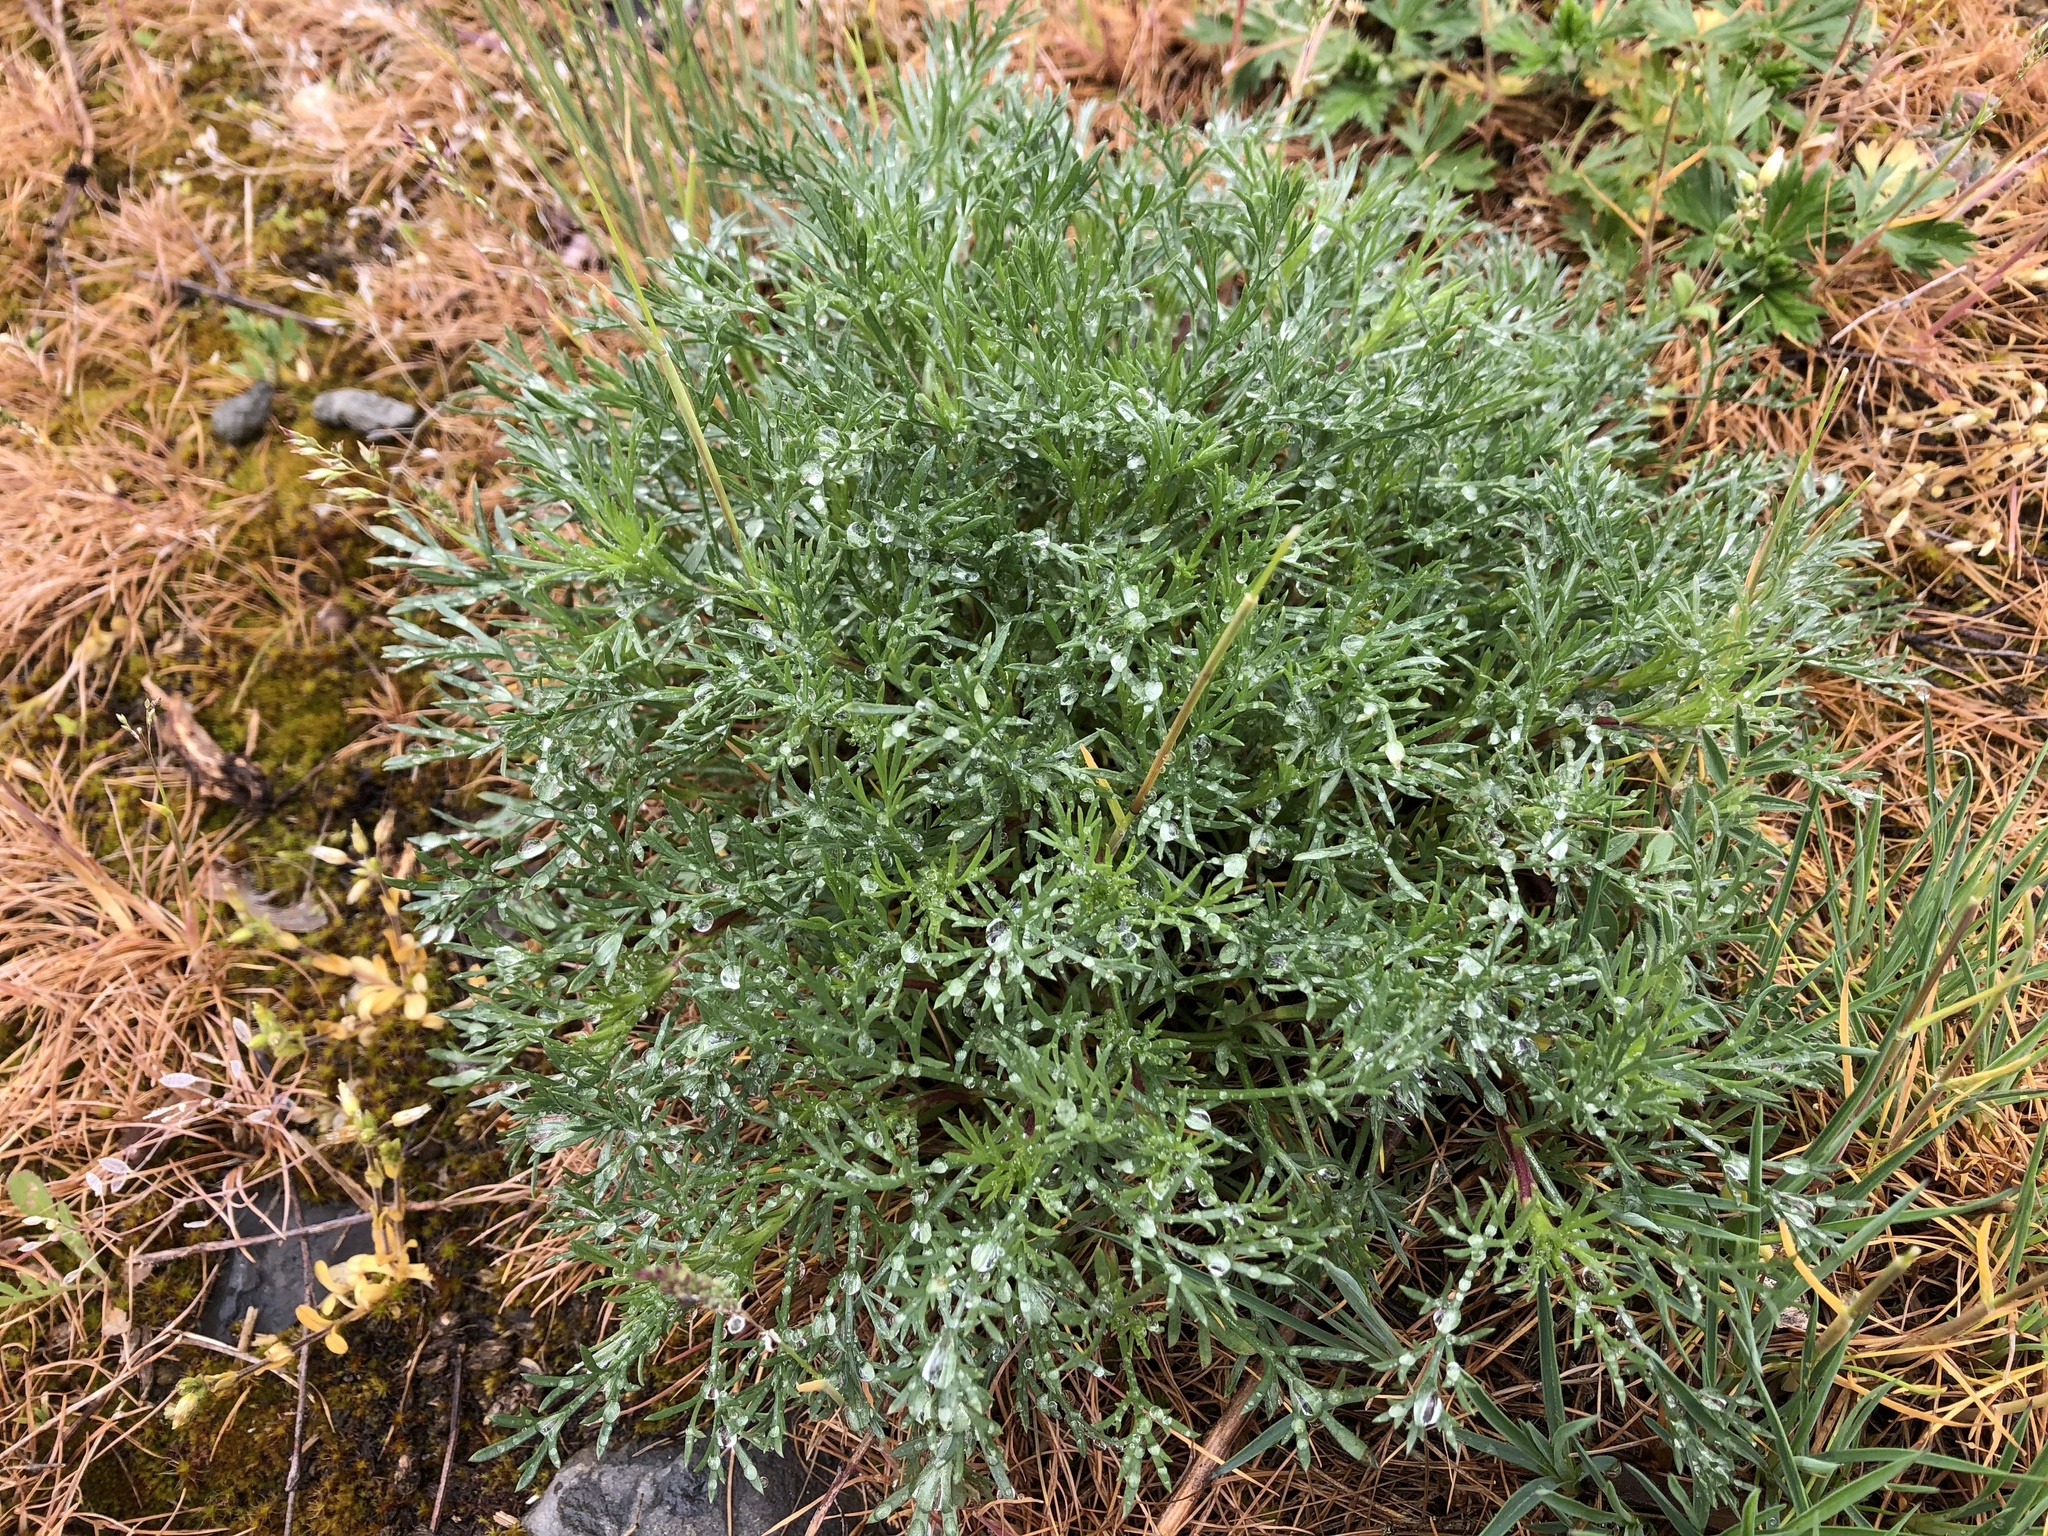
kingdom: Plantae
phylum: Tracheophyta
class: Magnoliopsida
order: Asterales
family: Asteraceae
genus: Artemisia
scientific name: Artemisia campestris
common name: Field wormwood
